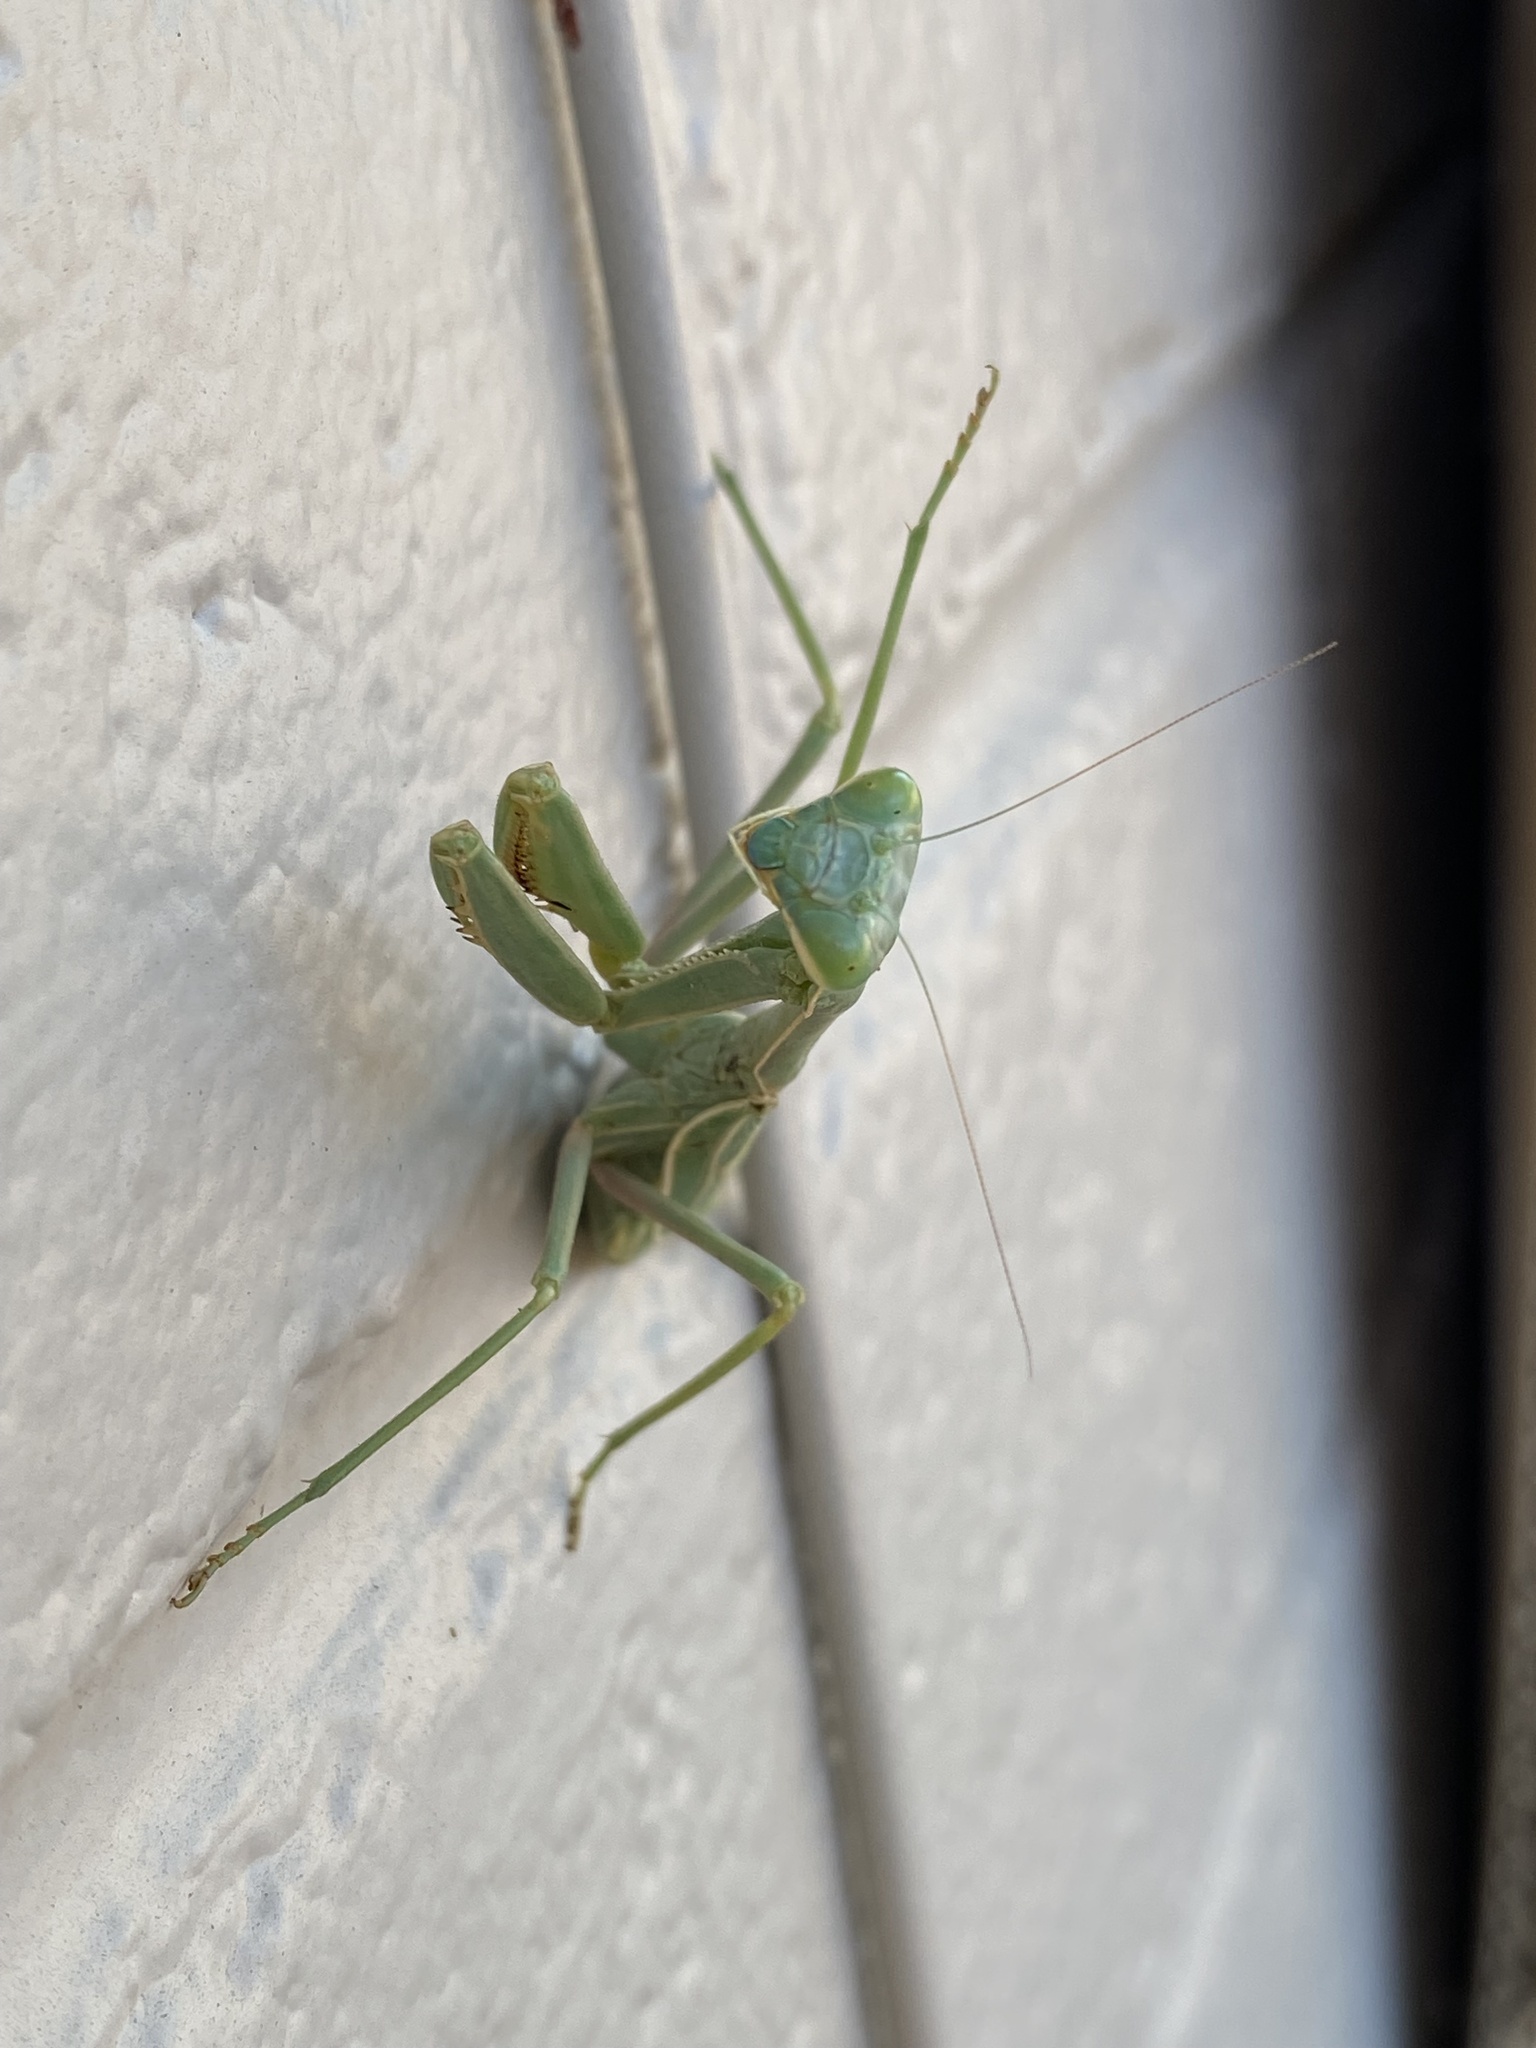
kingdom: Animalia
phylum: Arthropoda
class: Insecta
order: Mantodea
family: Mantidae
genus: Stagmomantis
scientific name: Stagmomantis limbata
